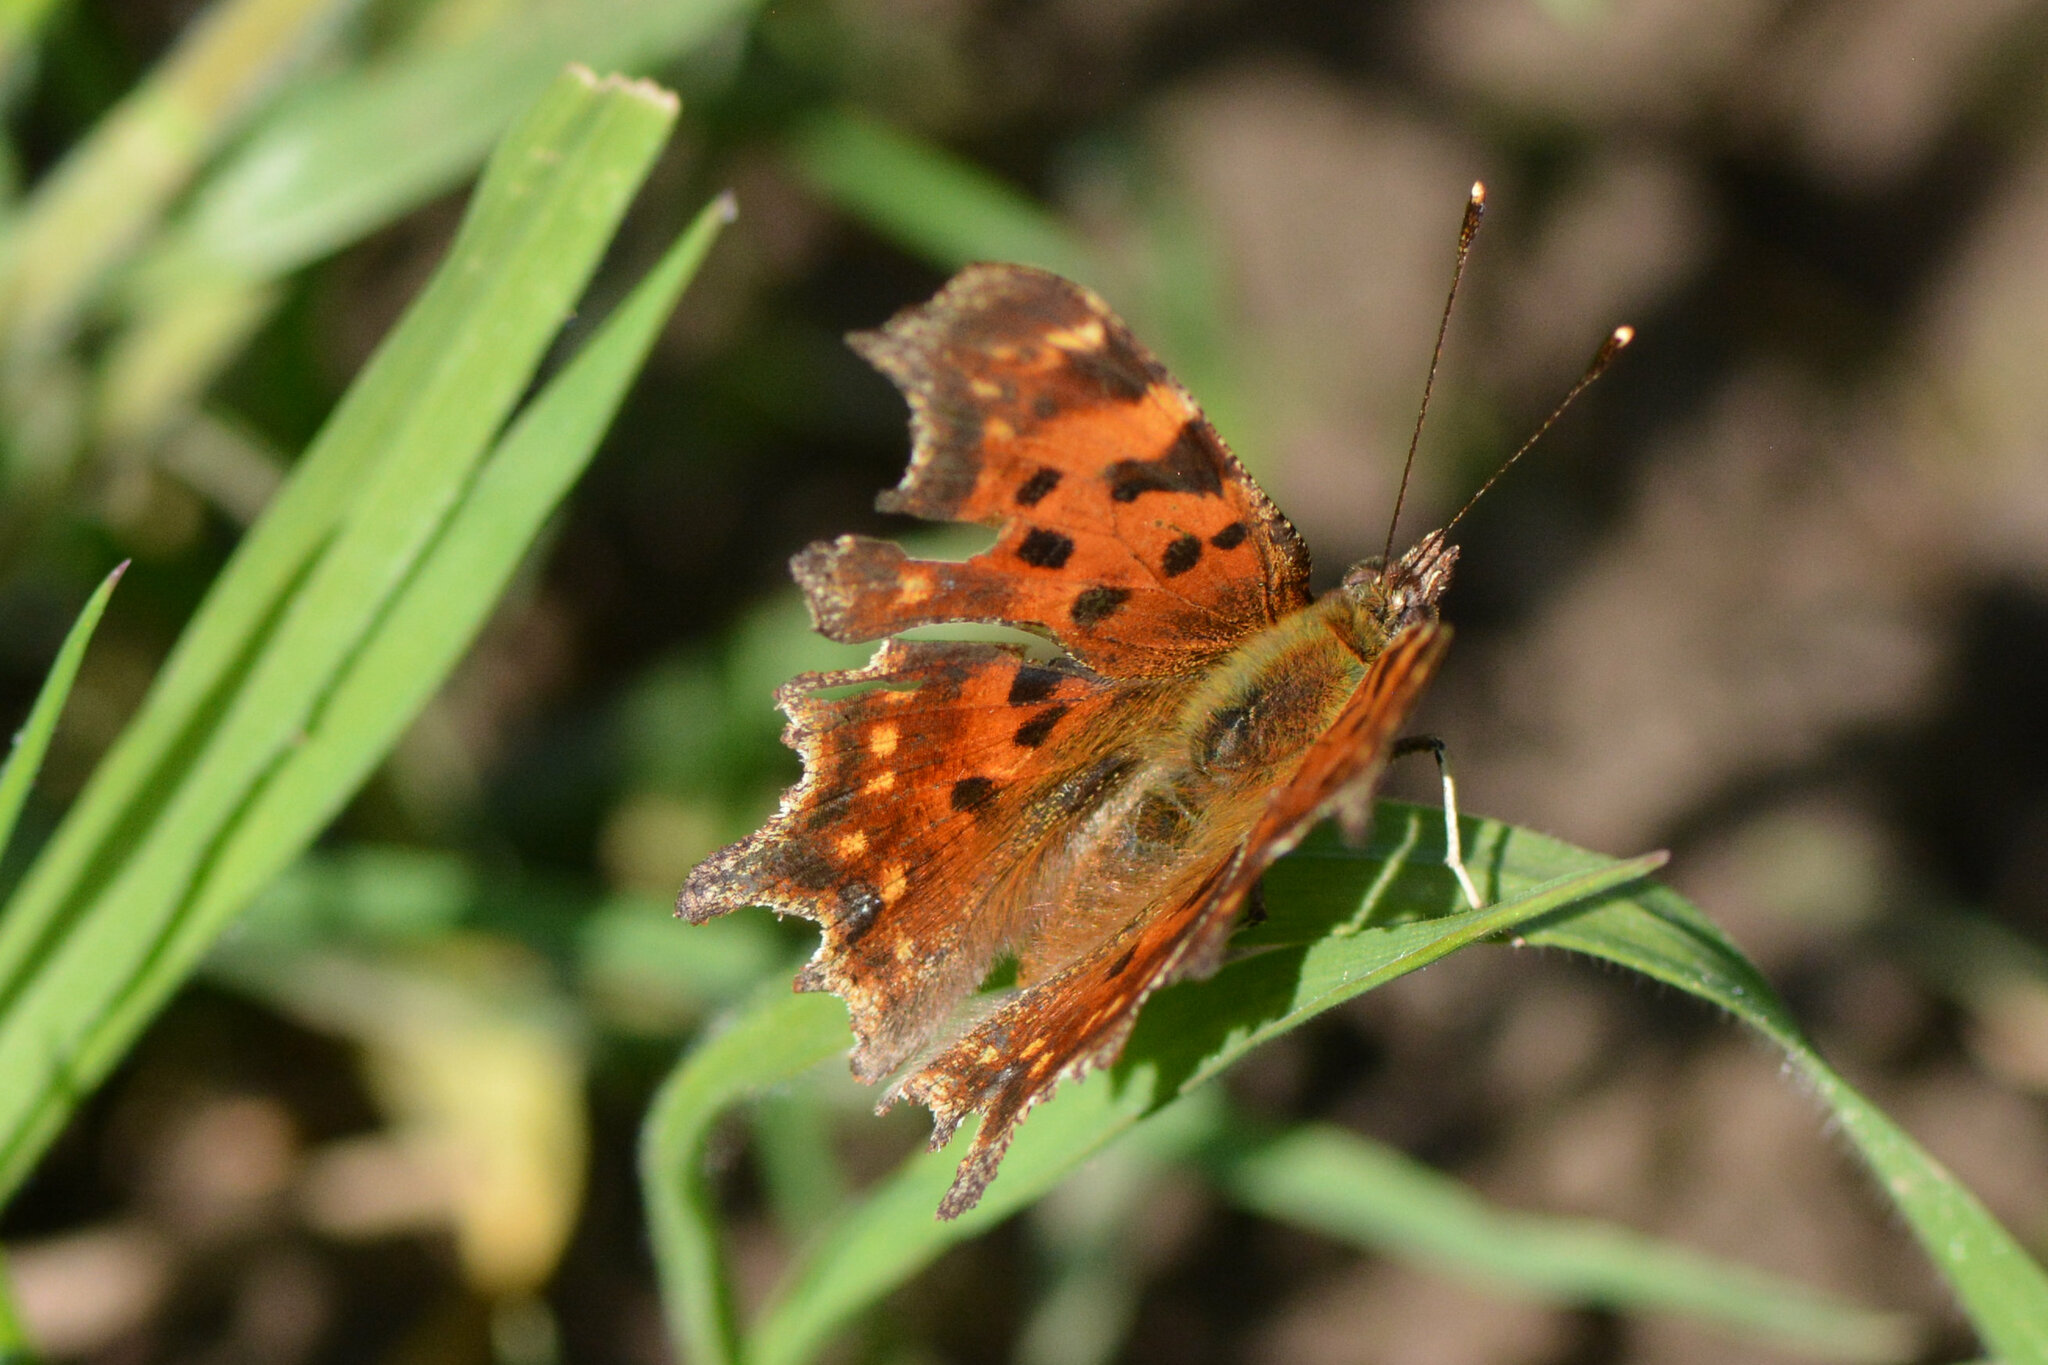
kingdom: Animalia
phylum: Arthropoda
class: Insecta
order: Lepidoptera
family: Nymphalidae
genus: Polygonia
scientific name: Polygonia c-album
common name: Comma
